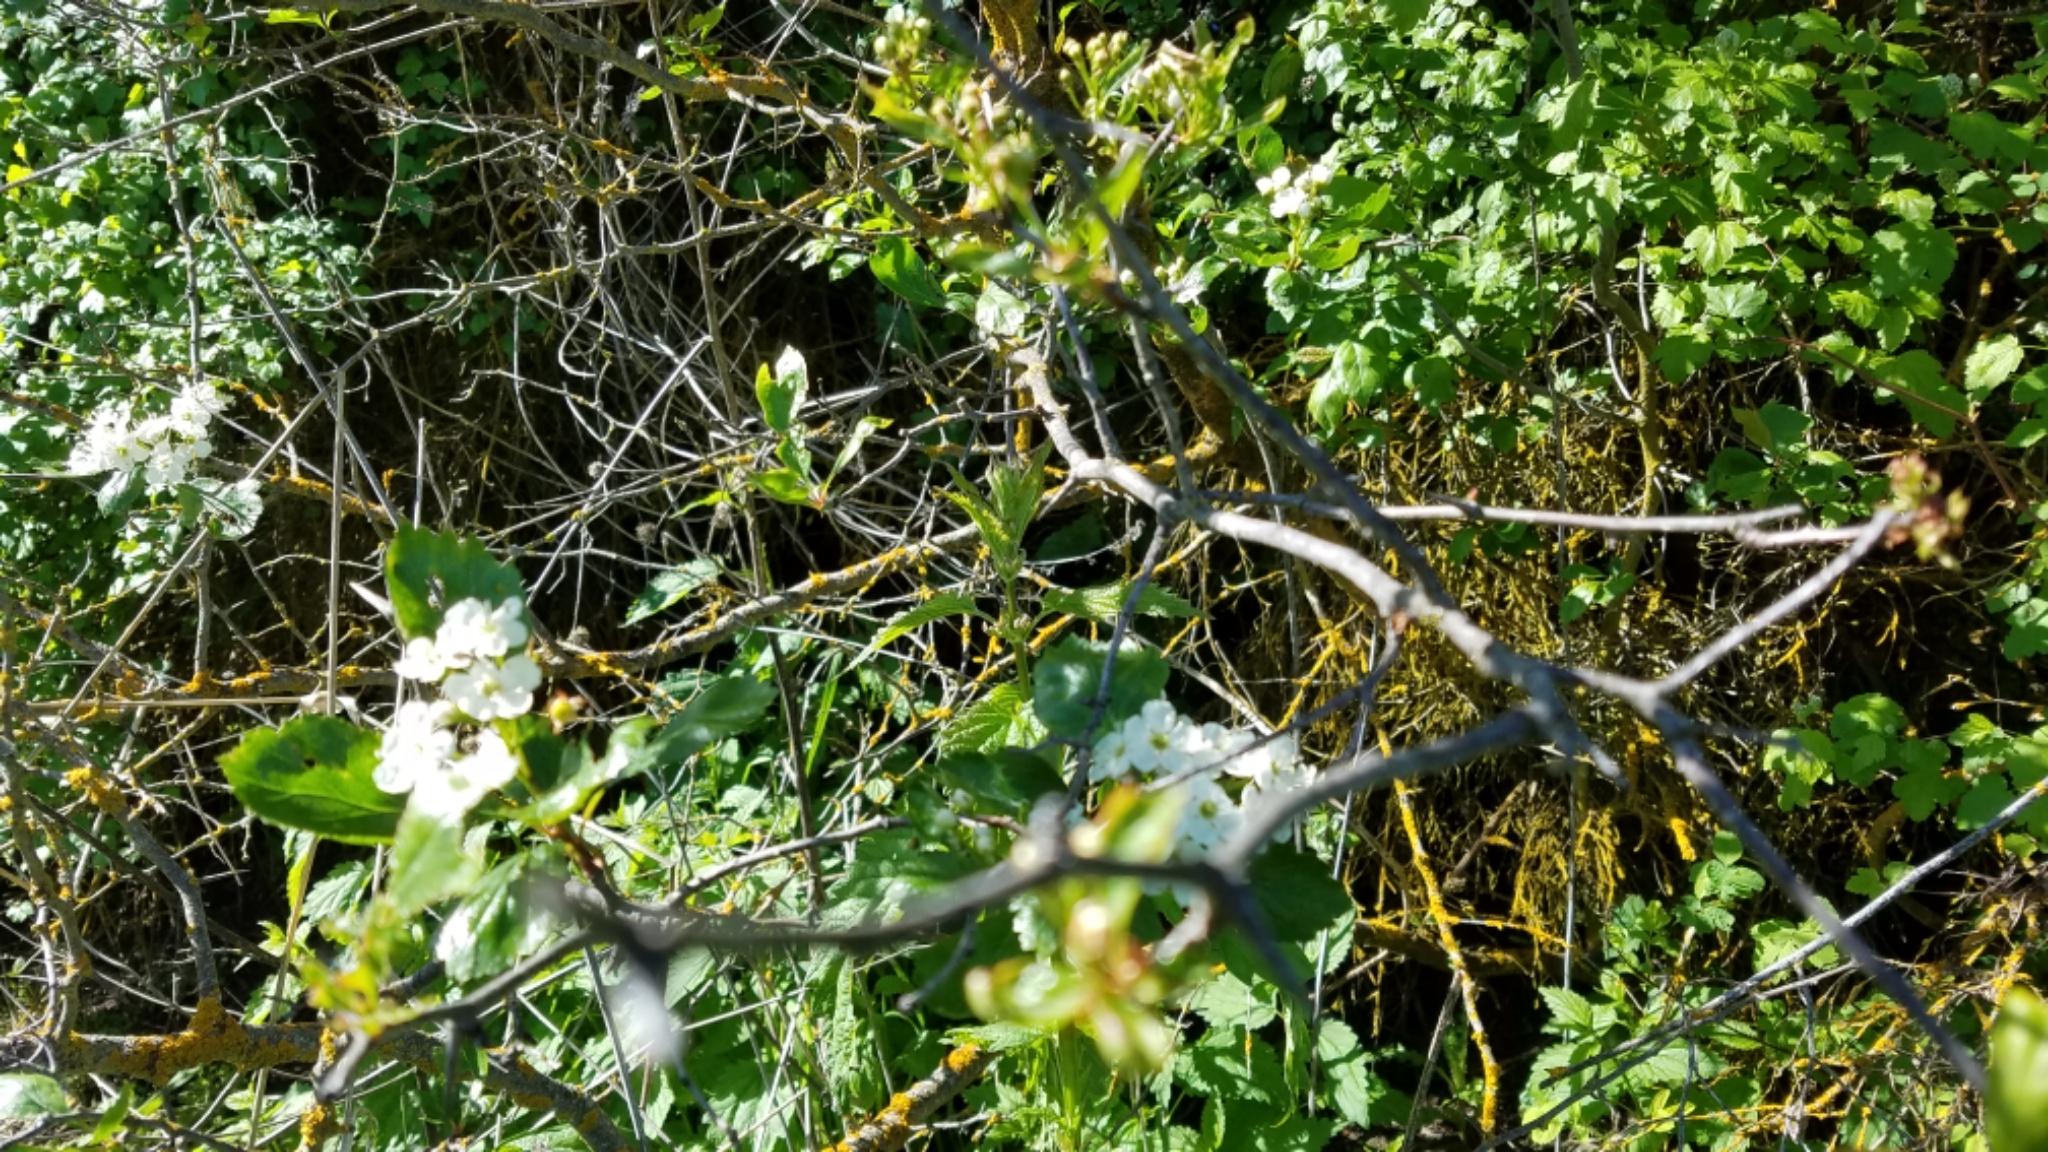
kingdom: Plantae
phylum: Tracheophyta
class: Magnoliopsida
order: Rosales
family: Rosaceae
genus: Crataegus
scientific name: Crataegus douglasii
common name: Black hawthorn
